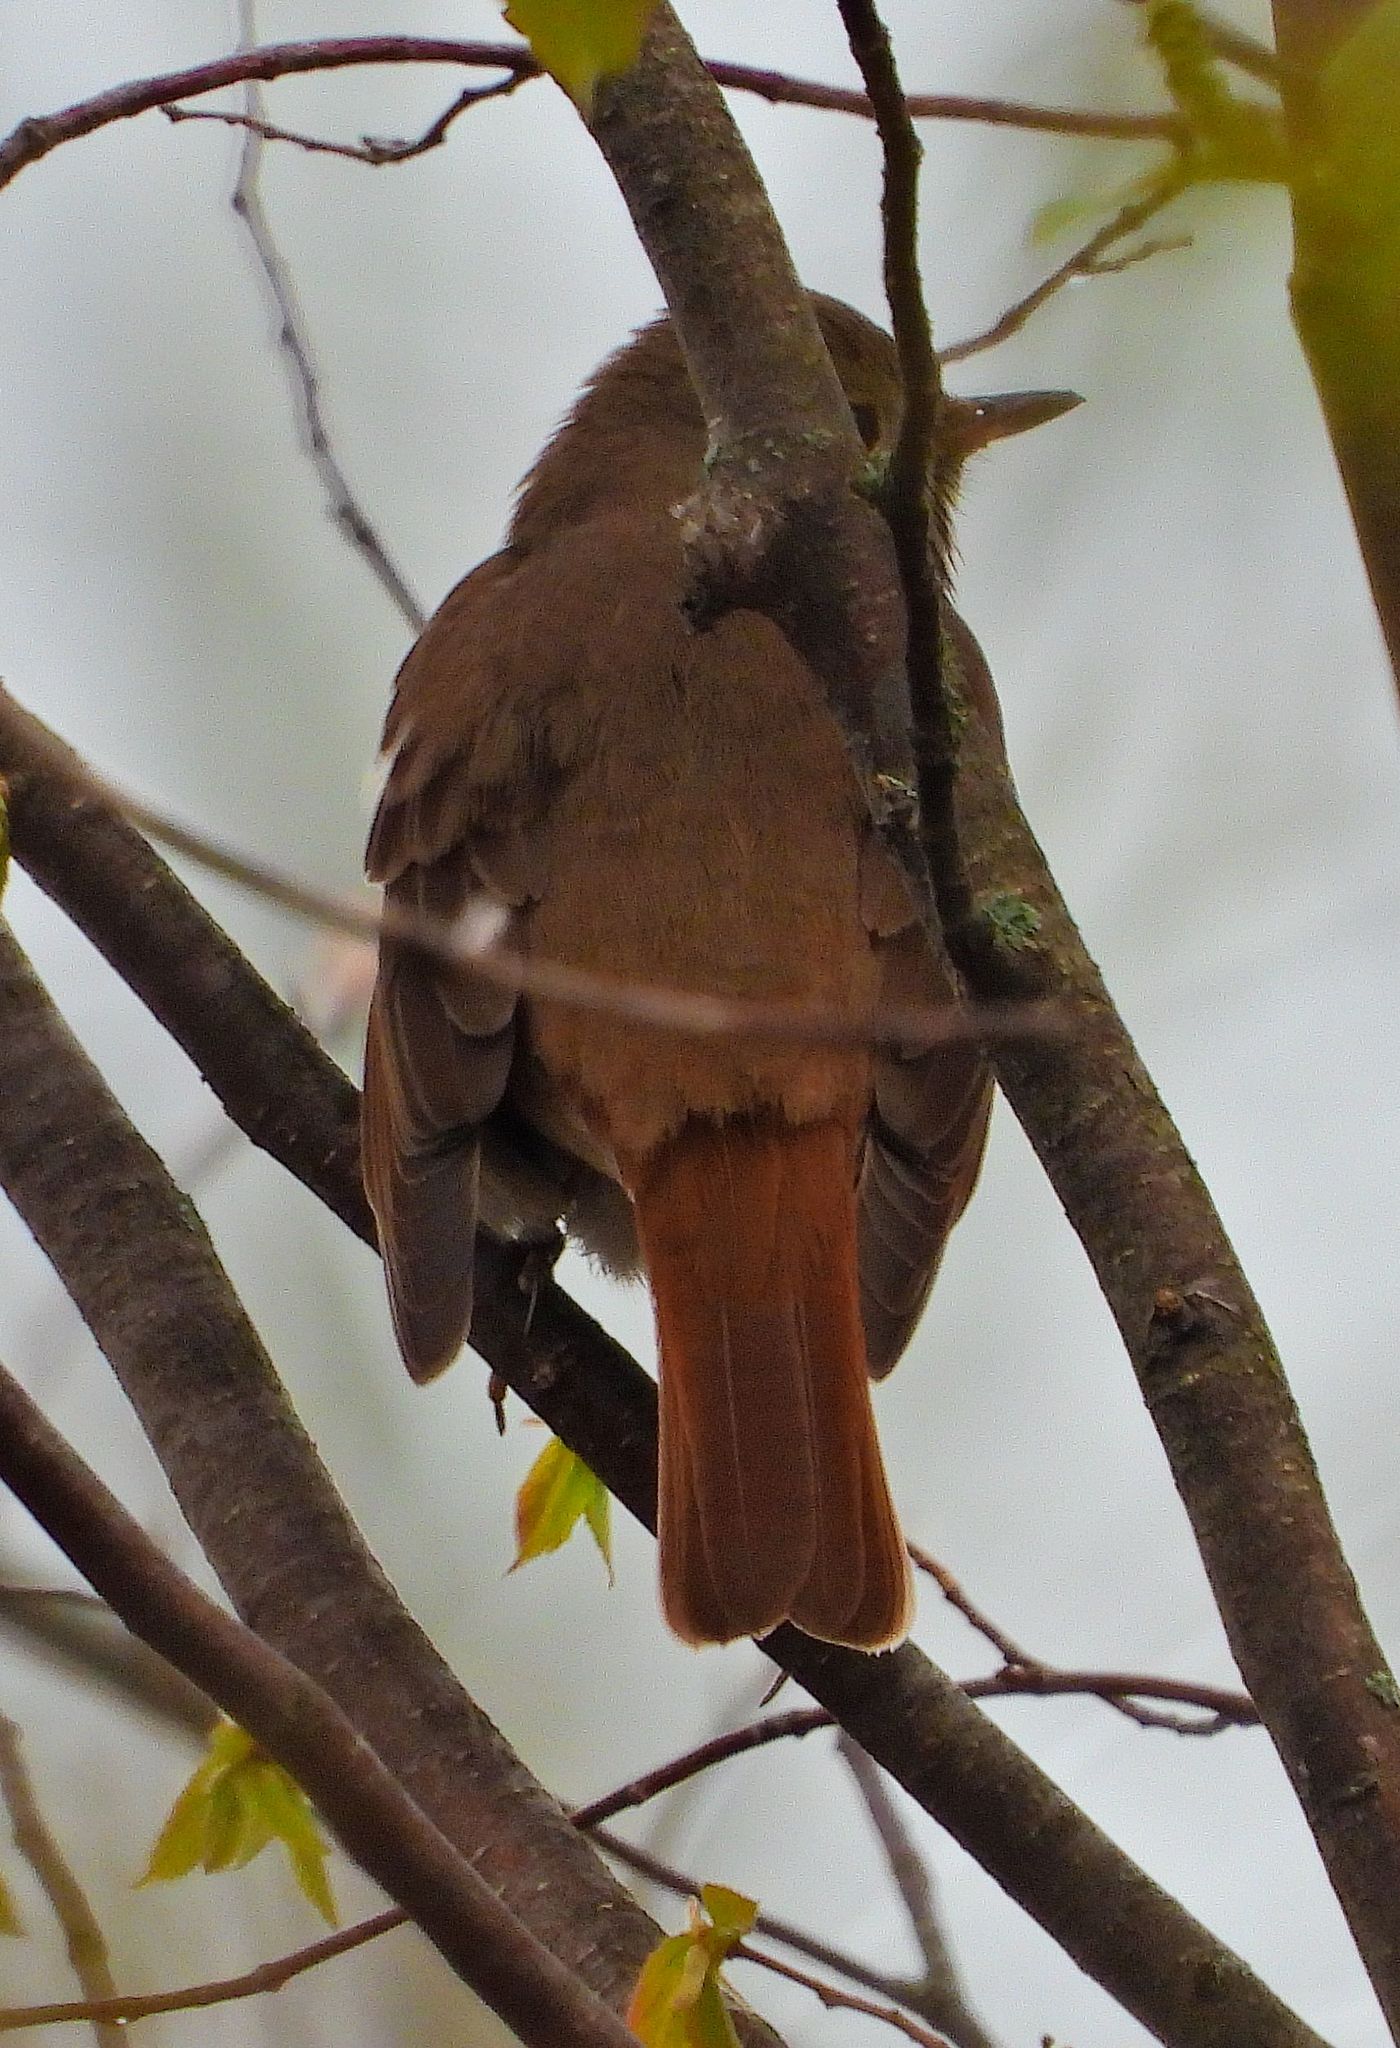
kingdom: Animalia
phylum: Chordata
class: Aves
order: Passeriformes
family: Turdidae
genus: Catharus
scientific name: Catharus guttatus
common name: Hermit thrush
